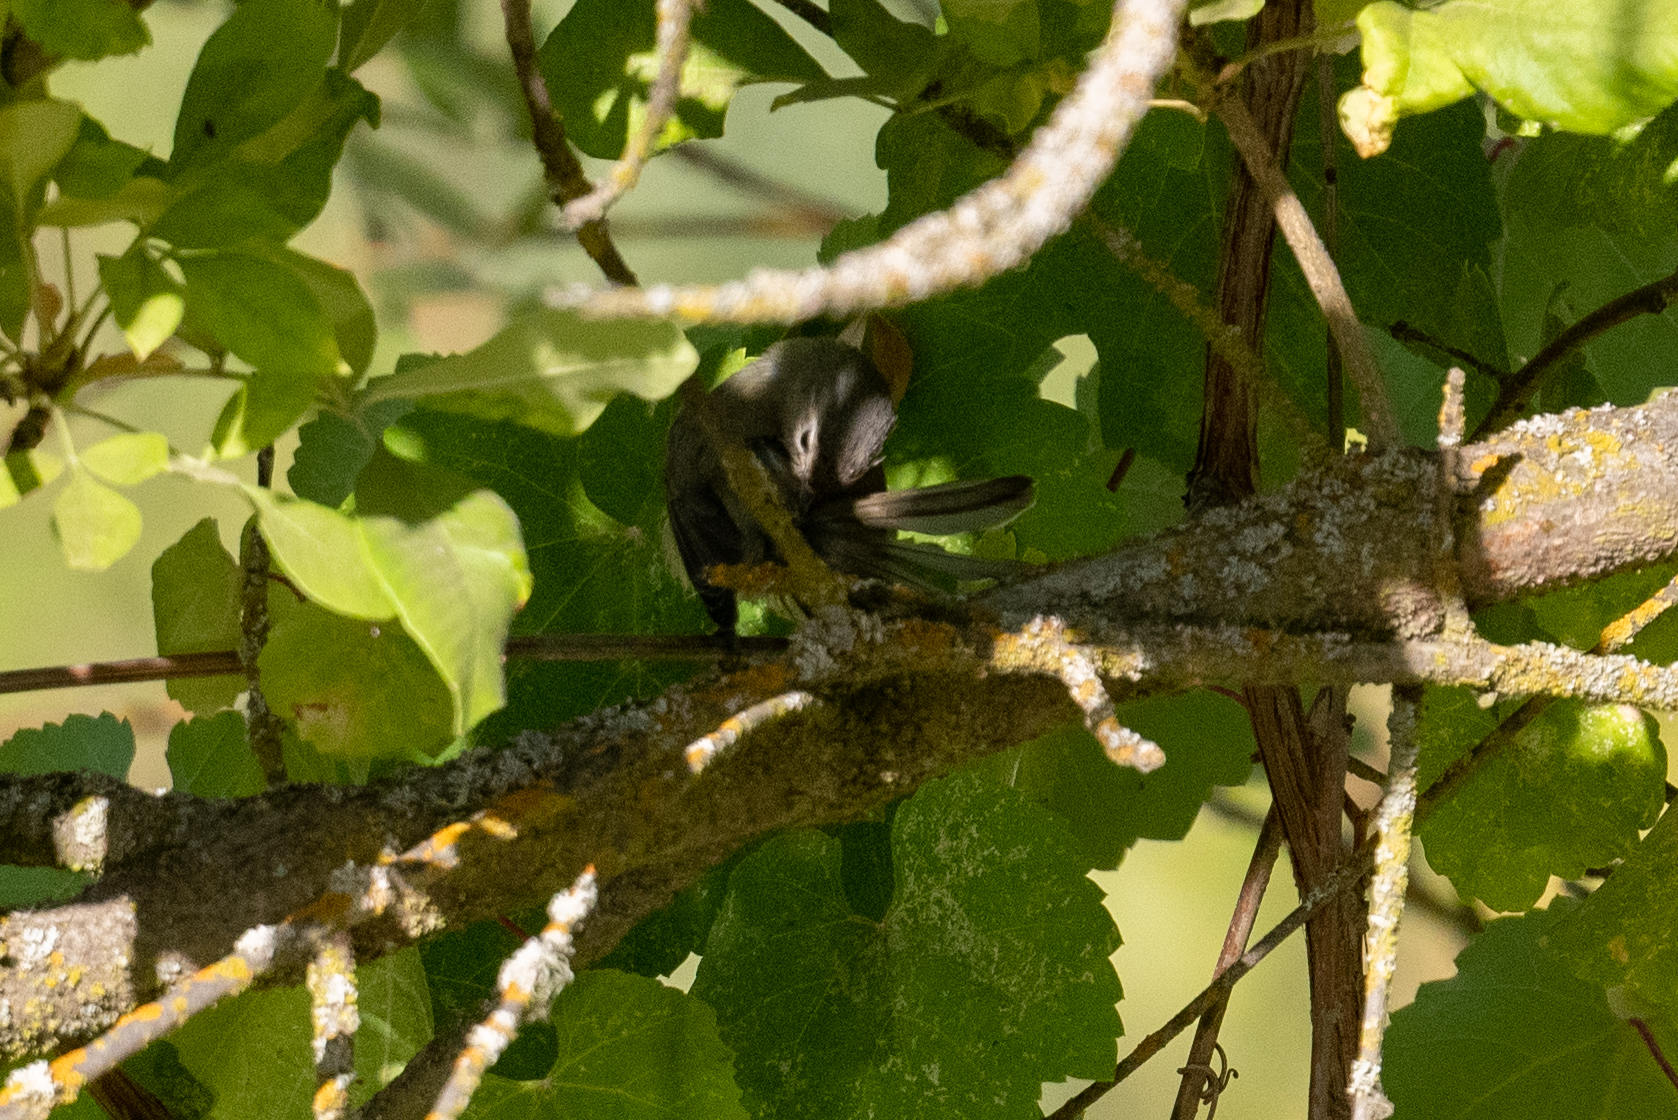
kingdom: Animalia
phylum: Chordata
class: Aves
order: Passeriformes
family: Vireonidae
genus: Vireo
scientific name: Vireo gilvus
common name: Warbling vireo
